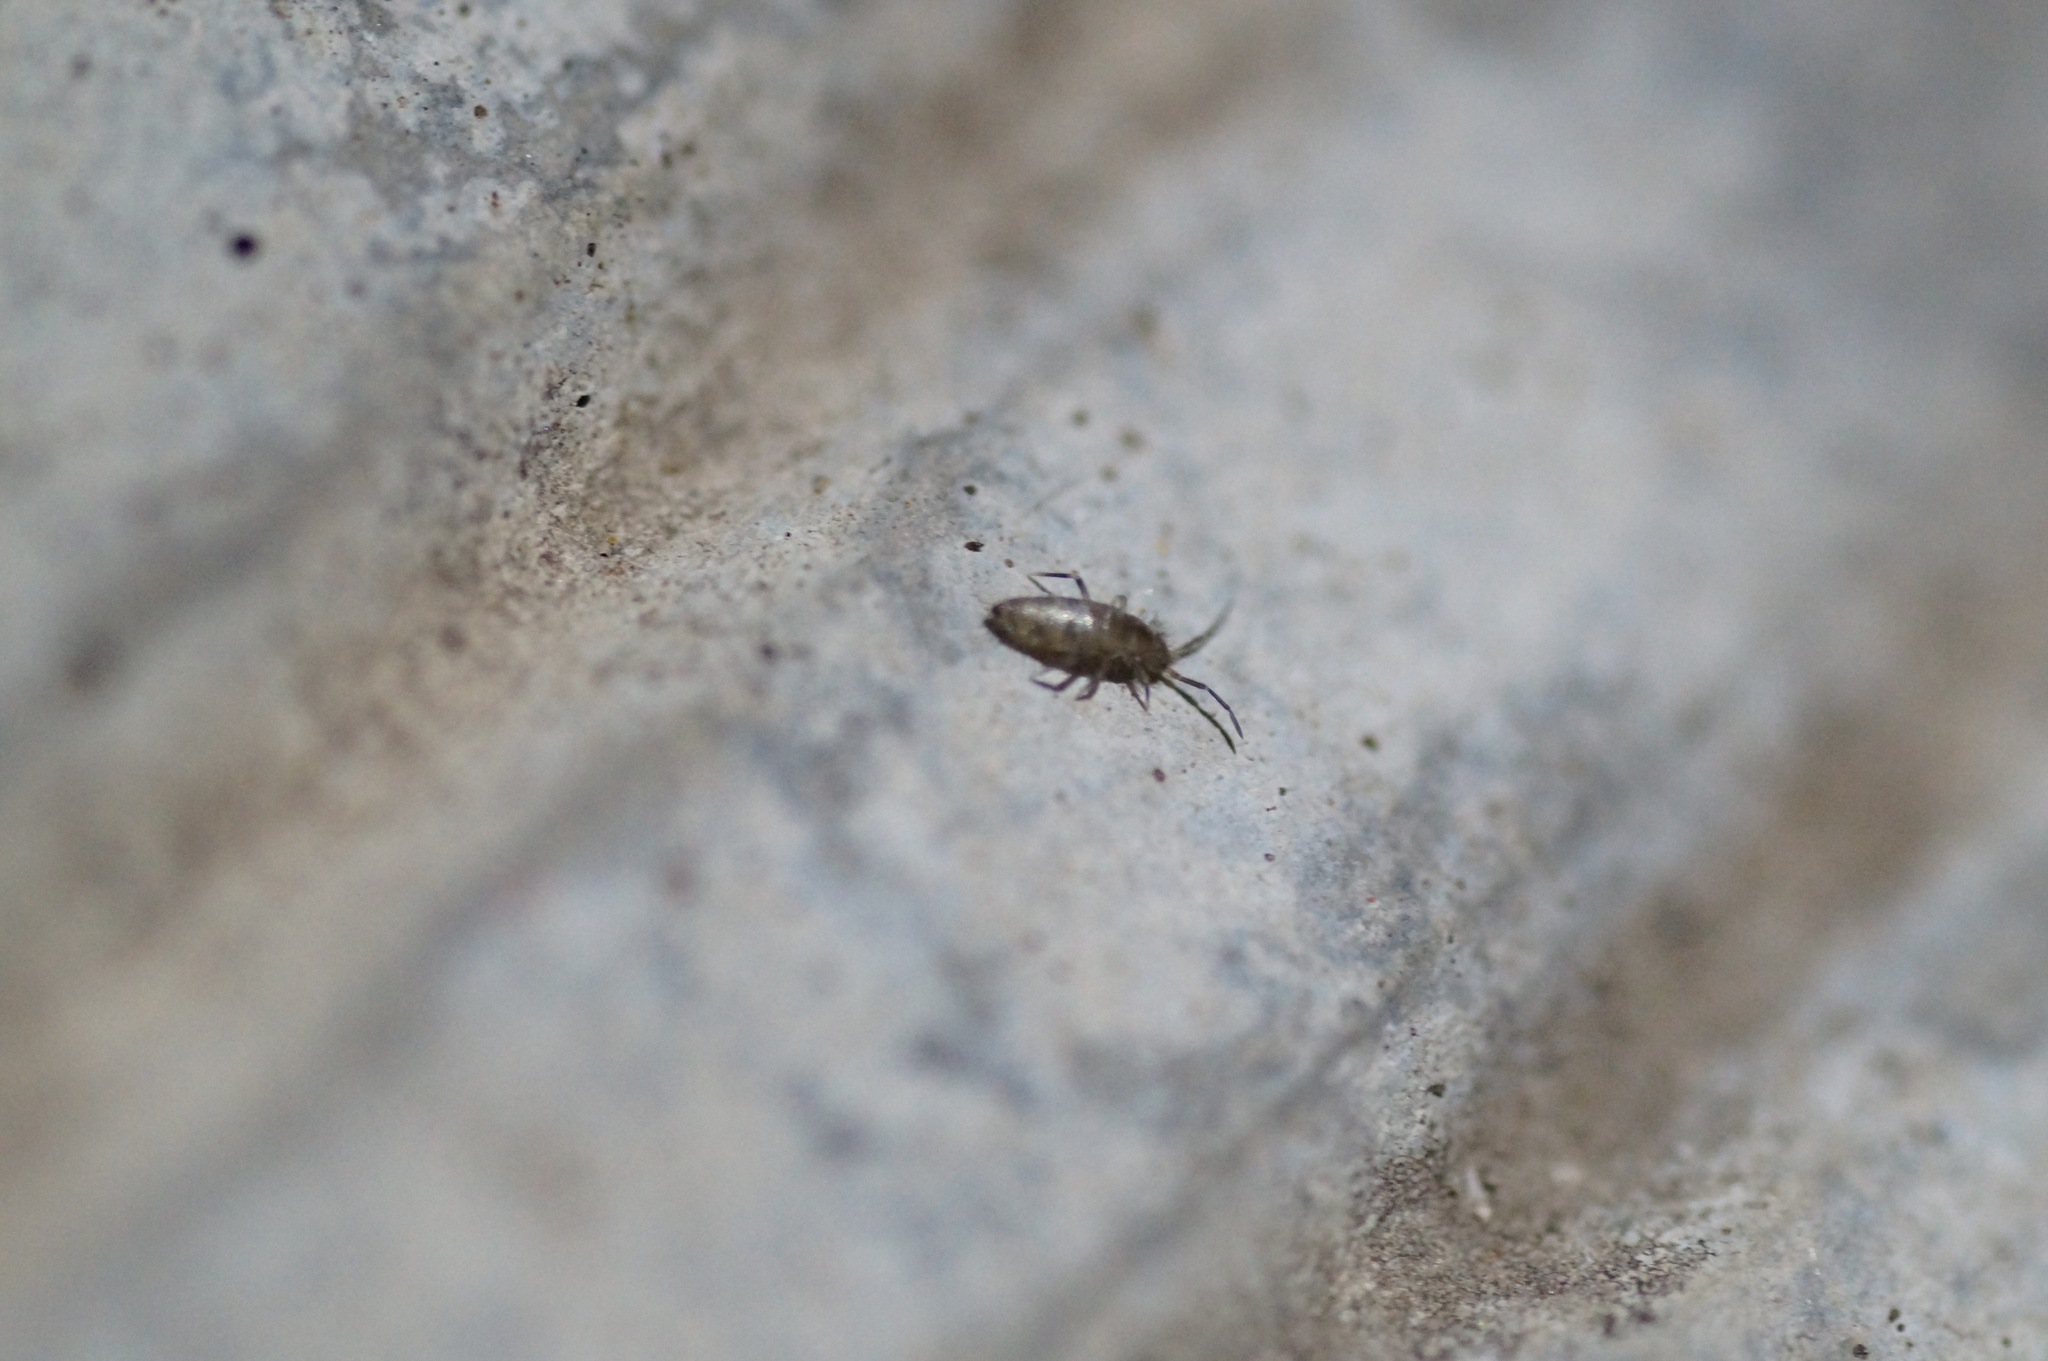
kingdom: Animalia
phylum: Arthropoda
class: Collembola
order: Entomobryomorpha
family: Entomobryidae
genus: Willowsia
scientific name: Willowsia nigromaculata
